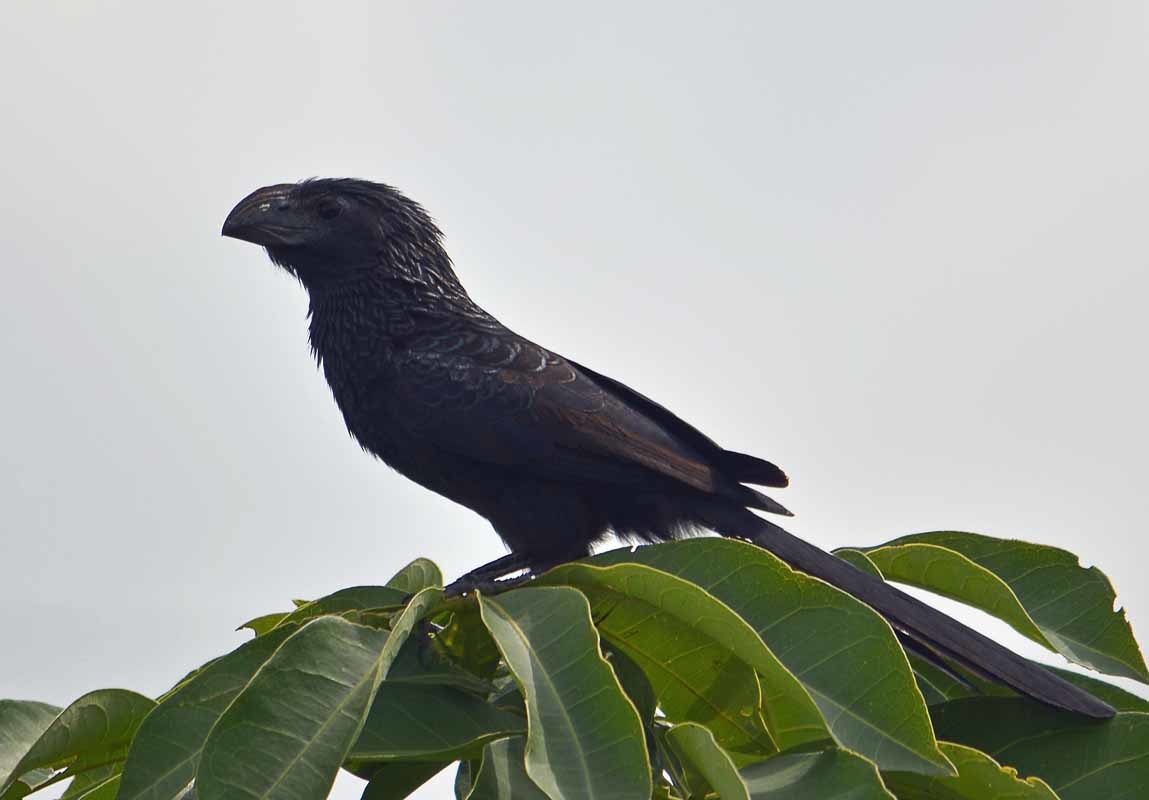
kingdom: Animalia
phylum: Chordata
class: Aves
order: Cuculiformes
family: Cuculidae
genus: Crotophaga
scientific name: Crotophaga sulcirostris
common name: Groove-billed ani
